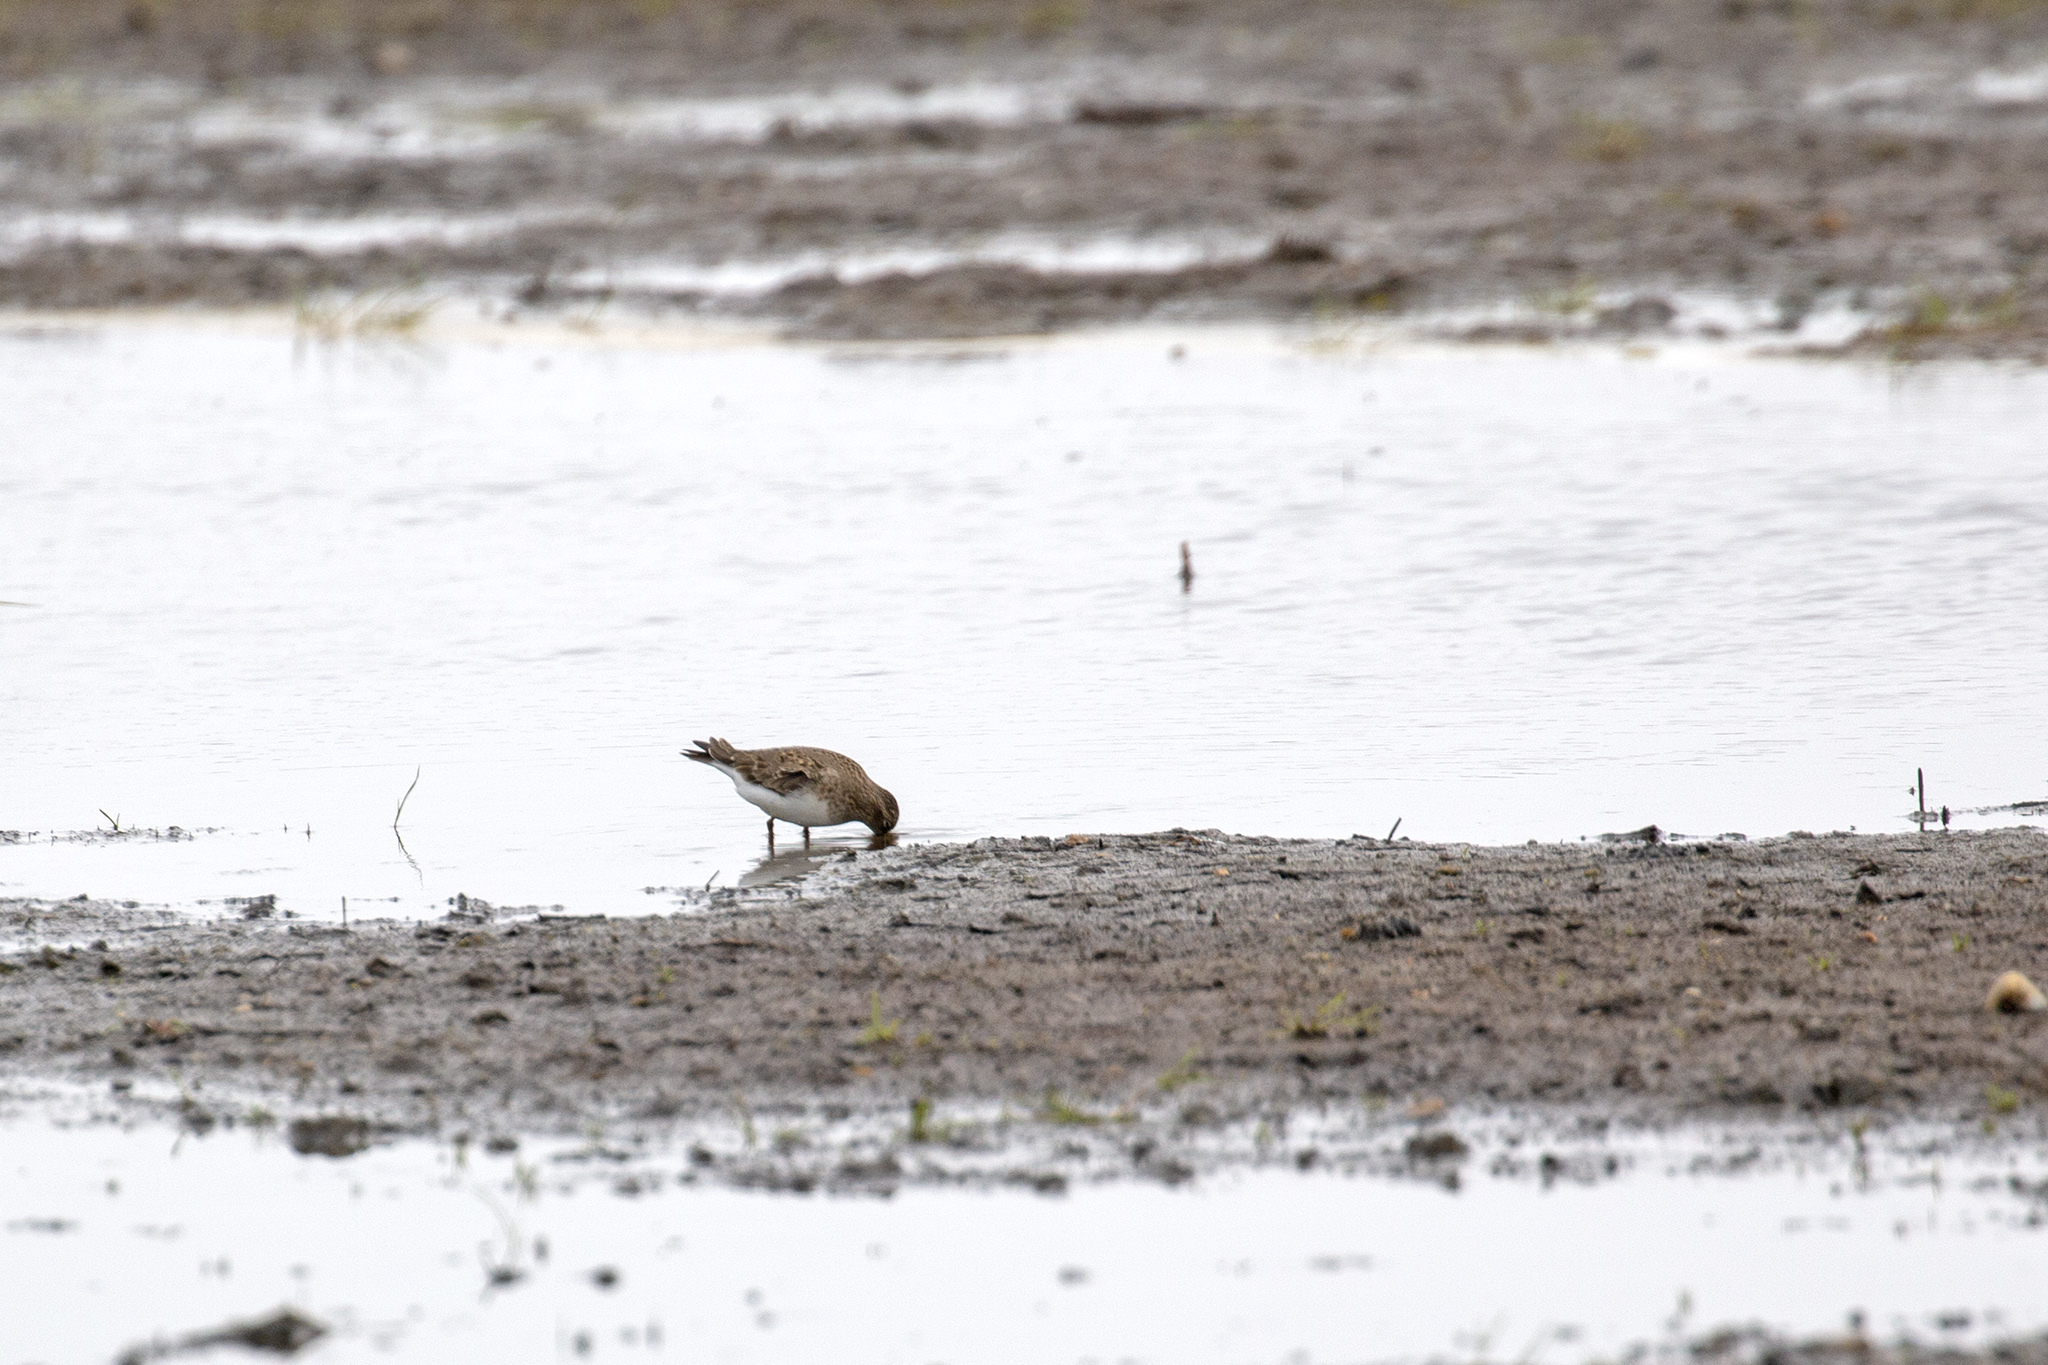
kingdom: Animalia
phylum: Chordata
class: Aves
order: Charadriiformes
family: Scolopacidae
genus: Calidris
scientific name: Calidris temminckii
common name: Temminck's stint
